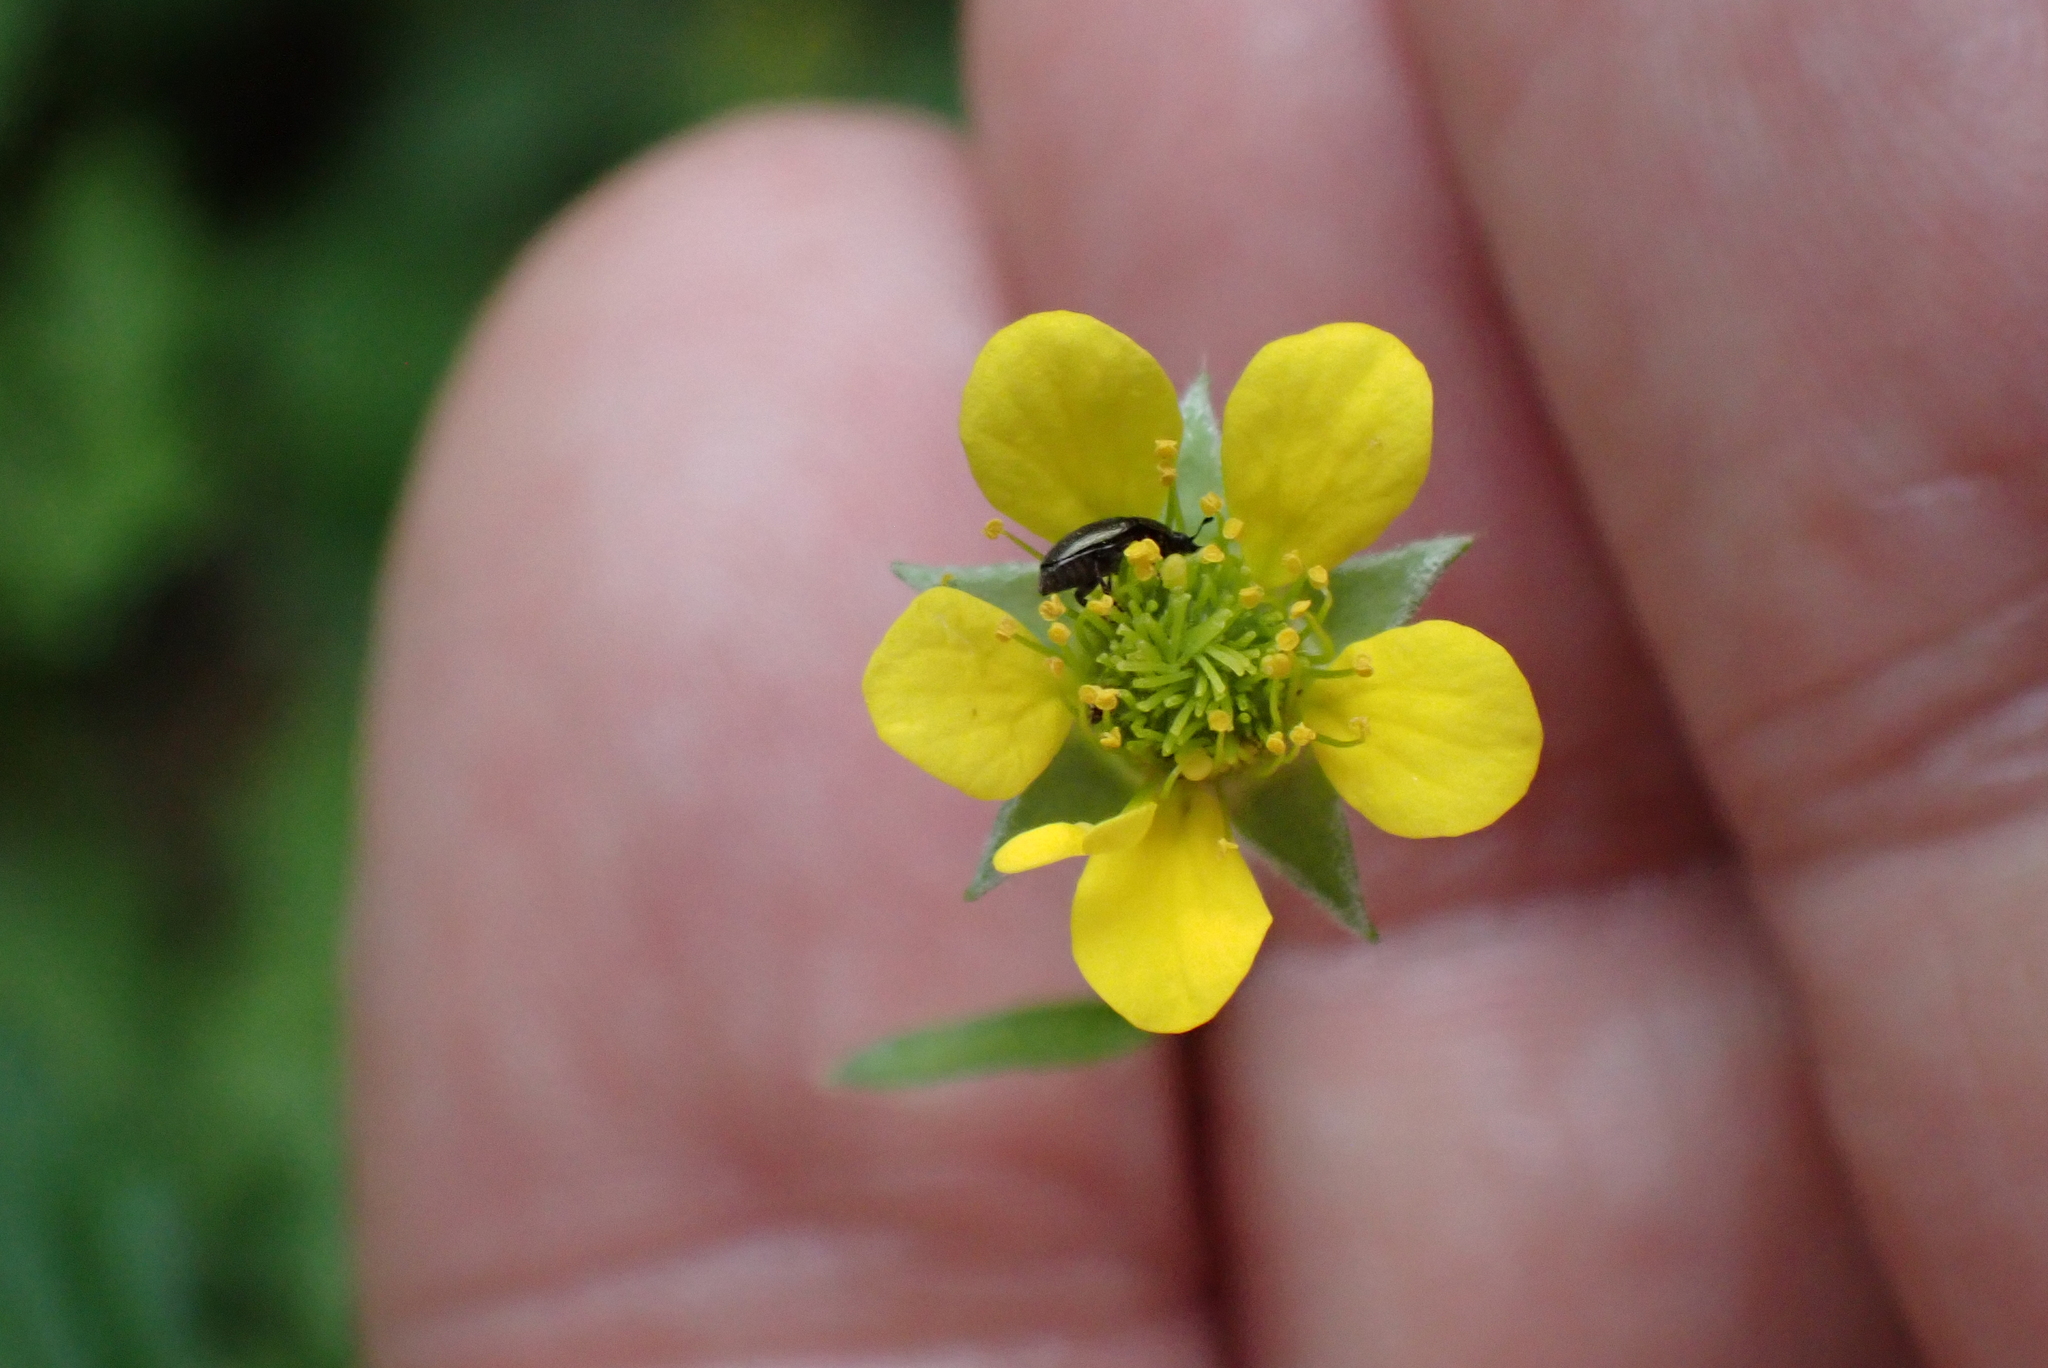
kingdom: Plantae
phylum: Tracheophyta
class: Magnoliopsida
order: Rosales
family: Rosaceae
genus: Geum
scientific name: Geum urbanum
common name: Wood avens
